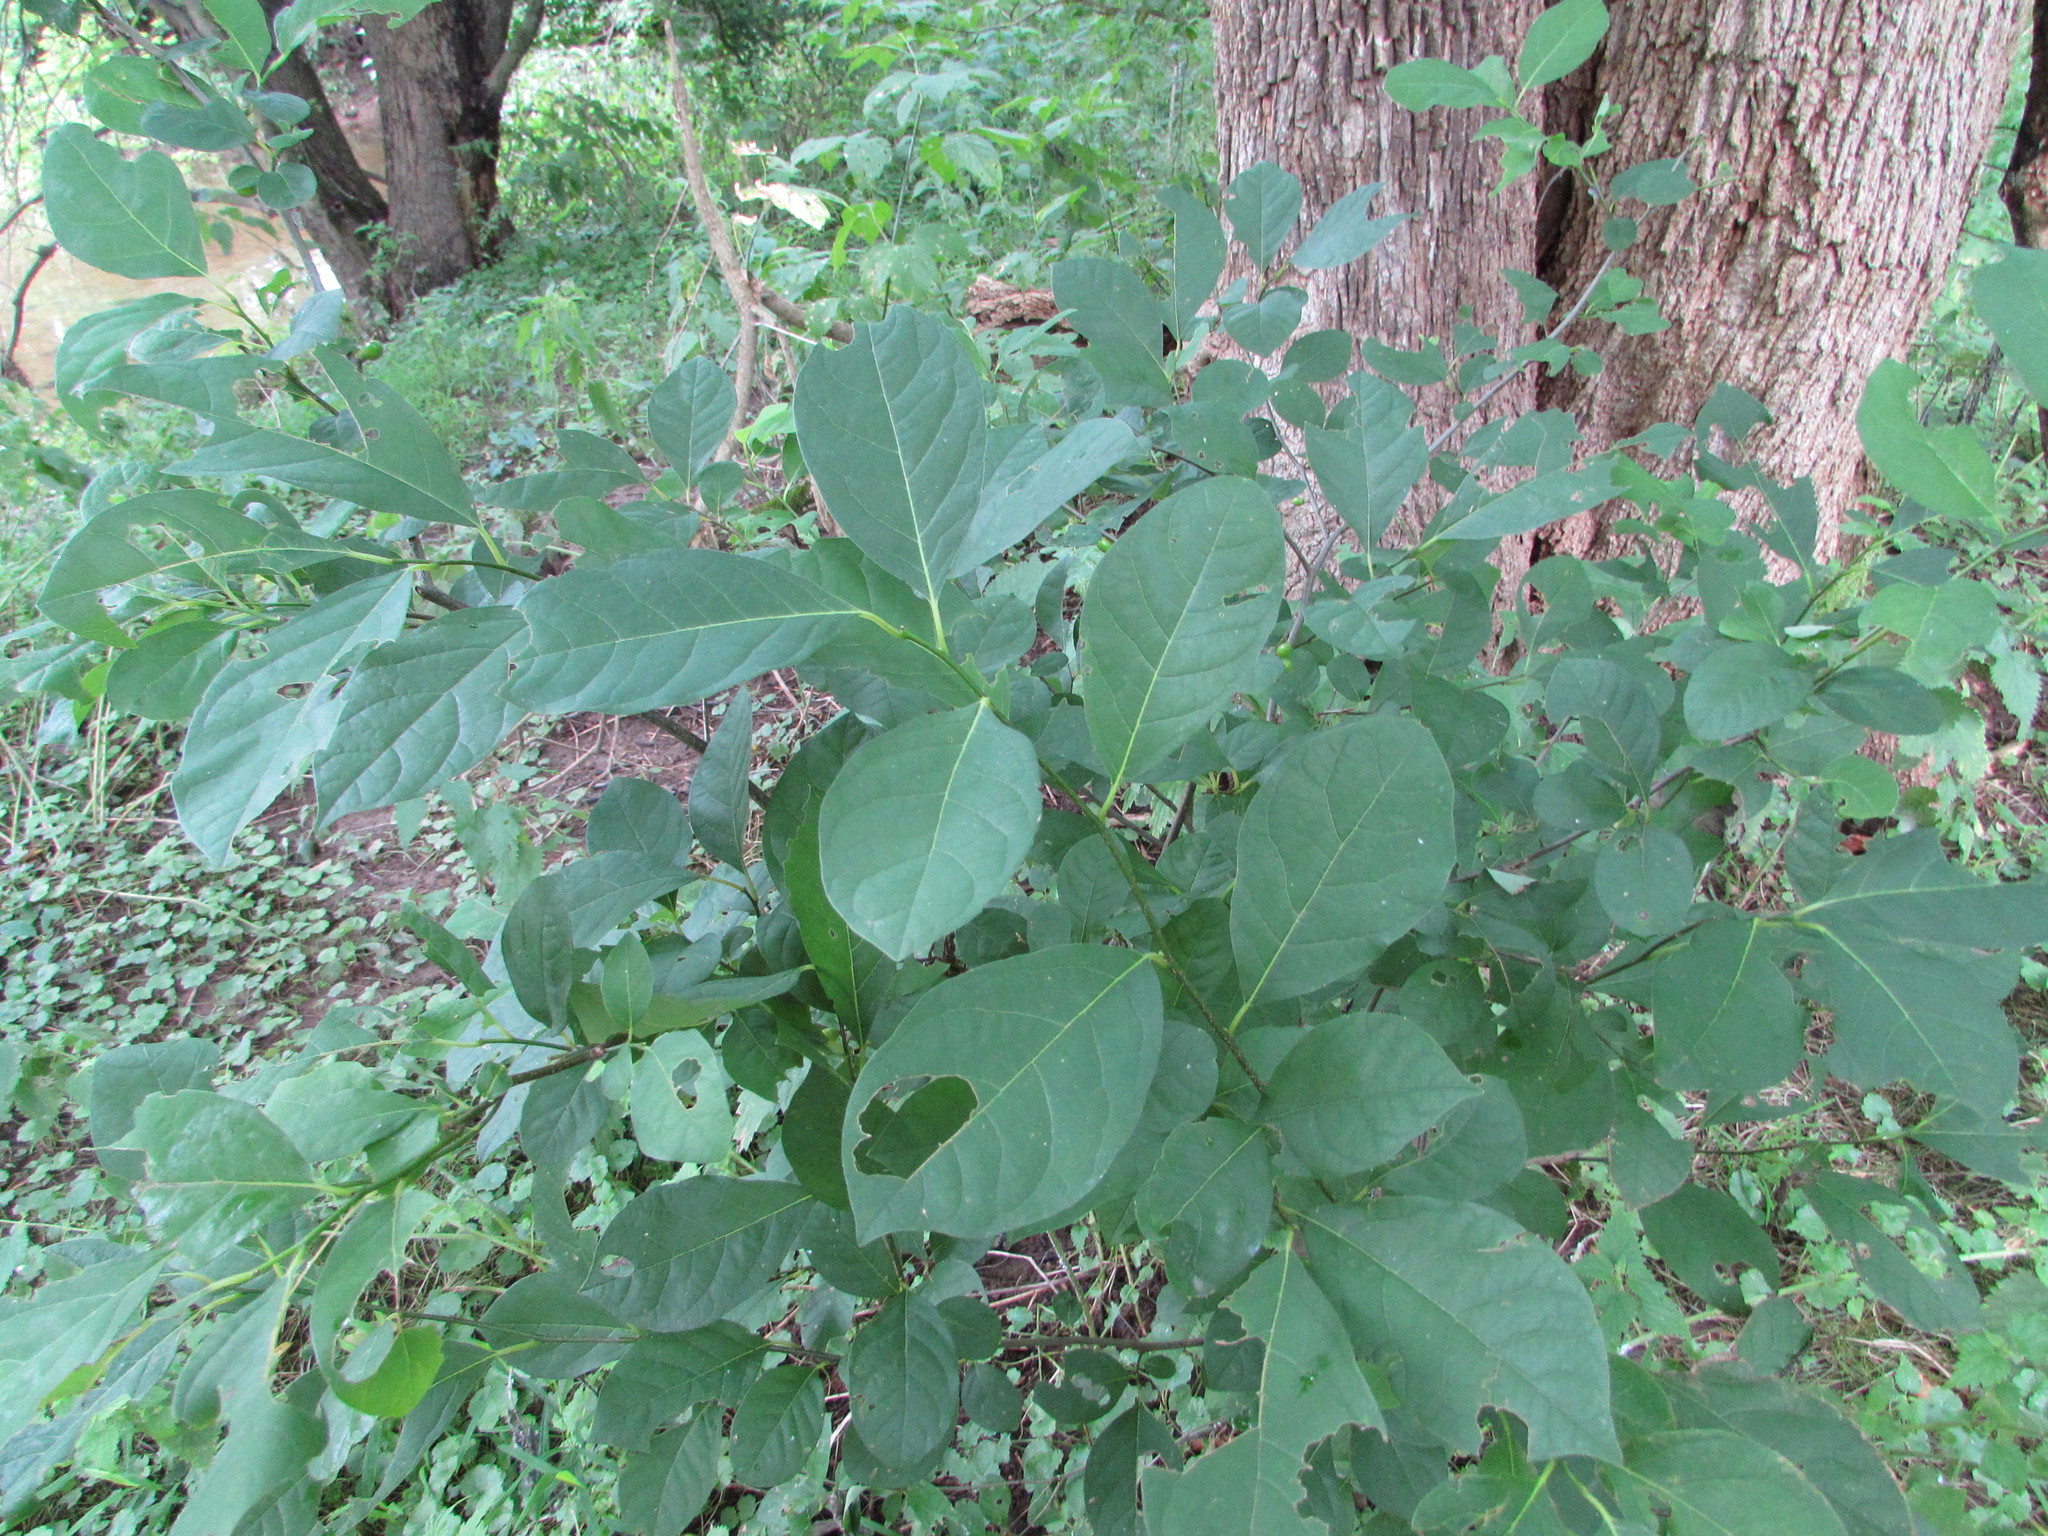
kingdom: Plantae
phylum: Tracheophyta
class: Magnoliopsida
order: Laurales
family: Lauraceae
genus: Lindera
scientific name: Lindera benzoin
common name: Spicebush
